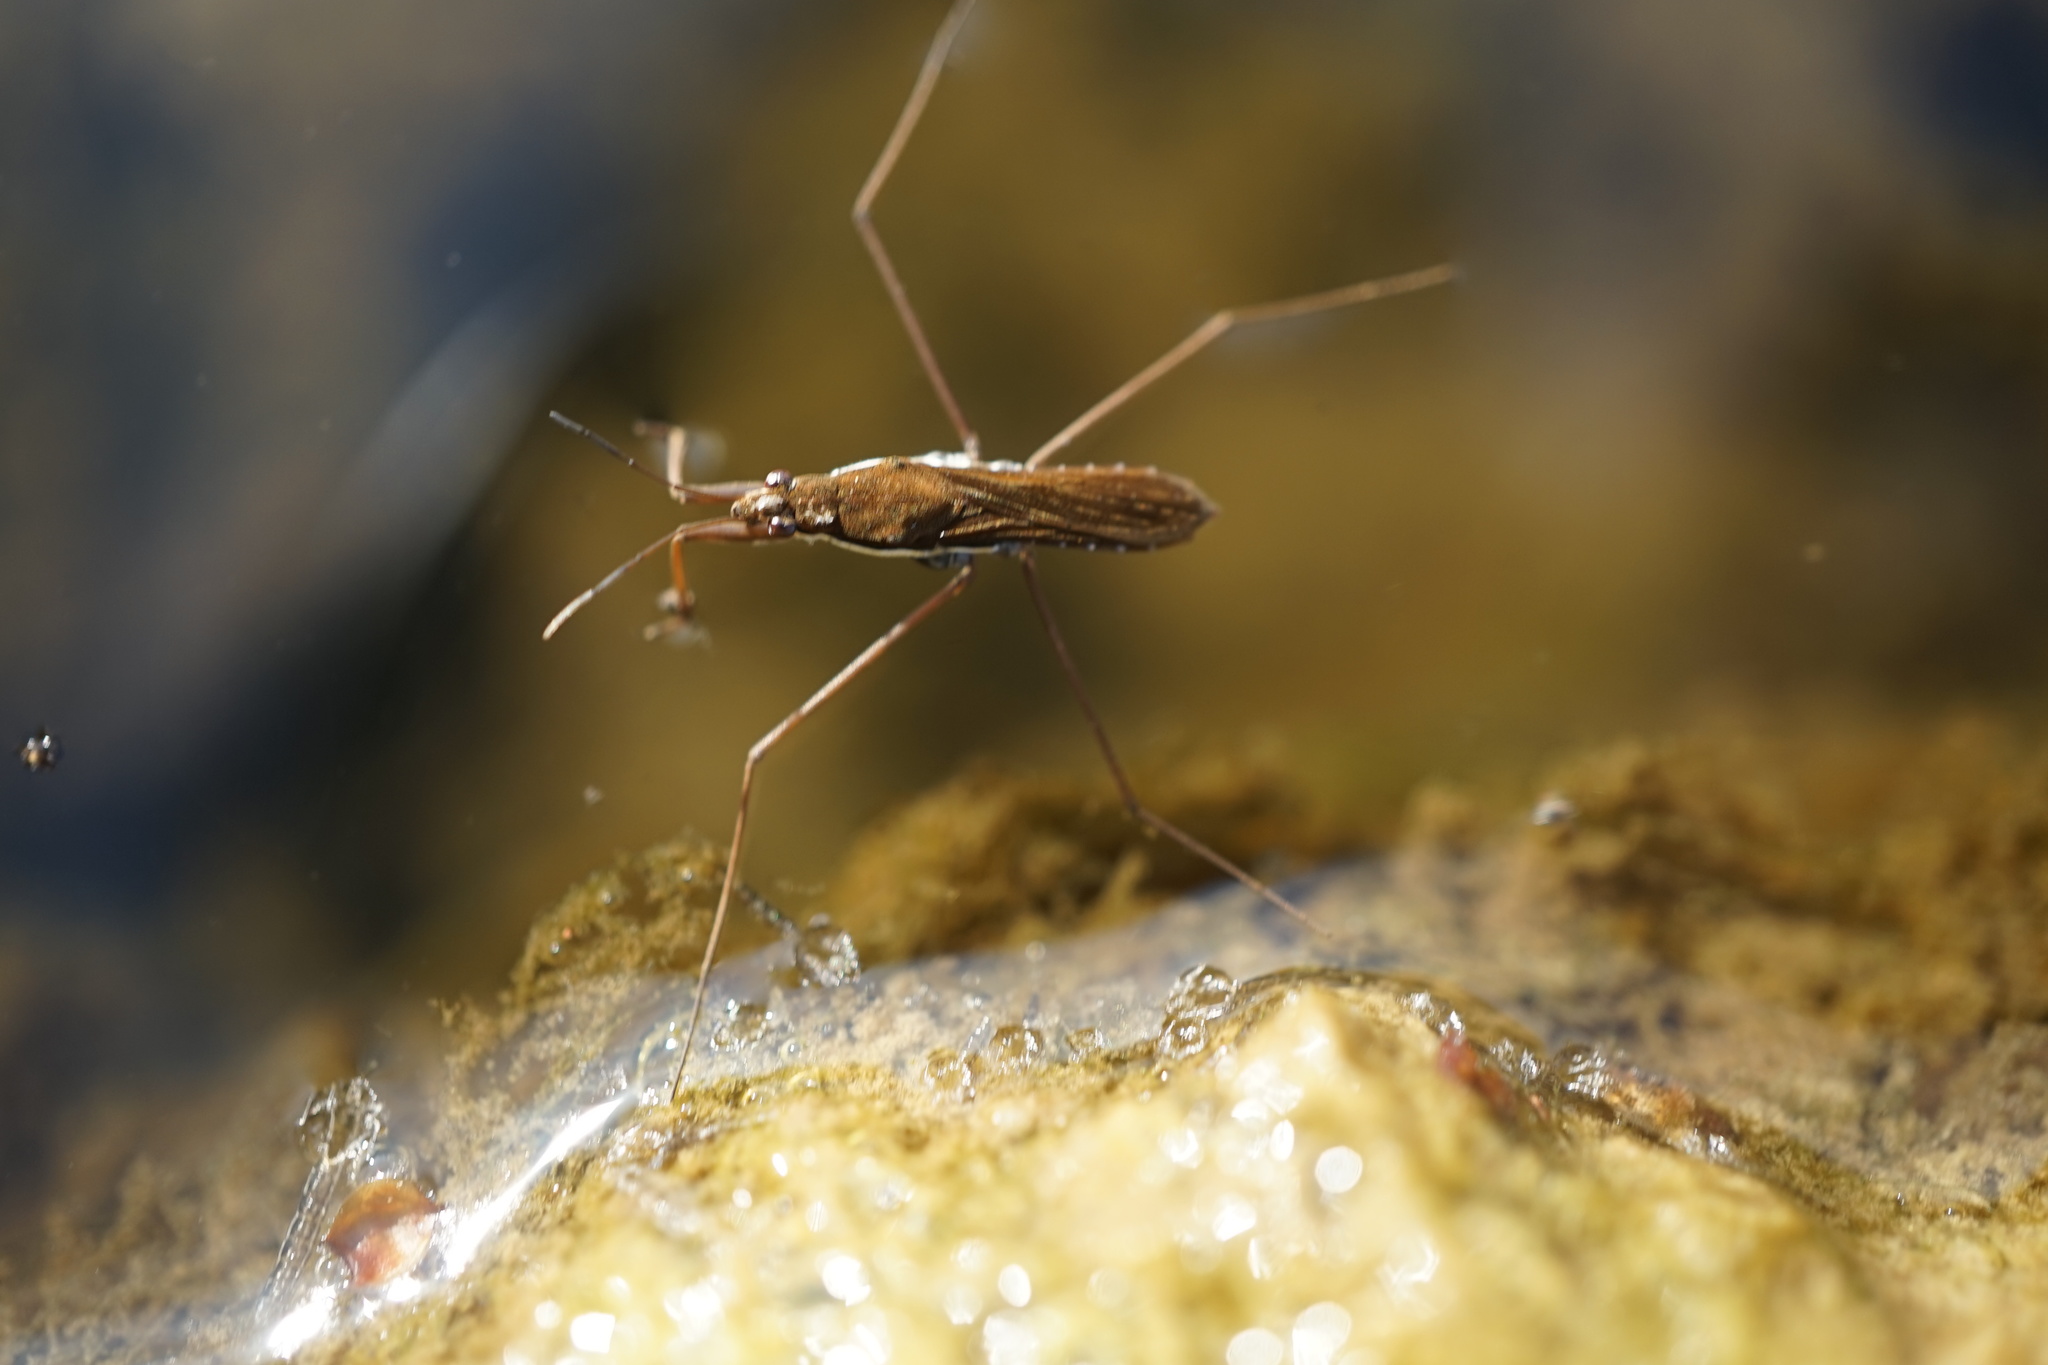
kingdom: Animalia
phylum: Arthropoda
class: Insecta
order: Hemiptera
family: Gerridae
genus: Gerris
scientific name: Gerris gracilicornis
